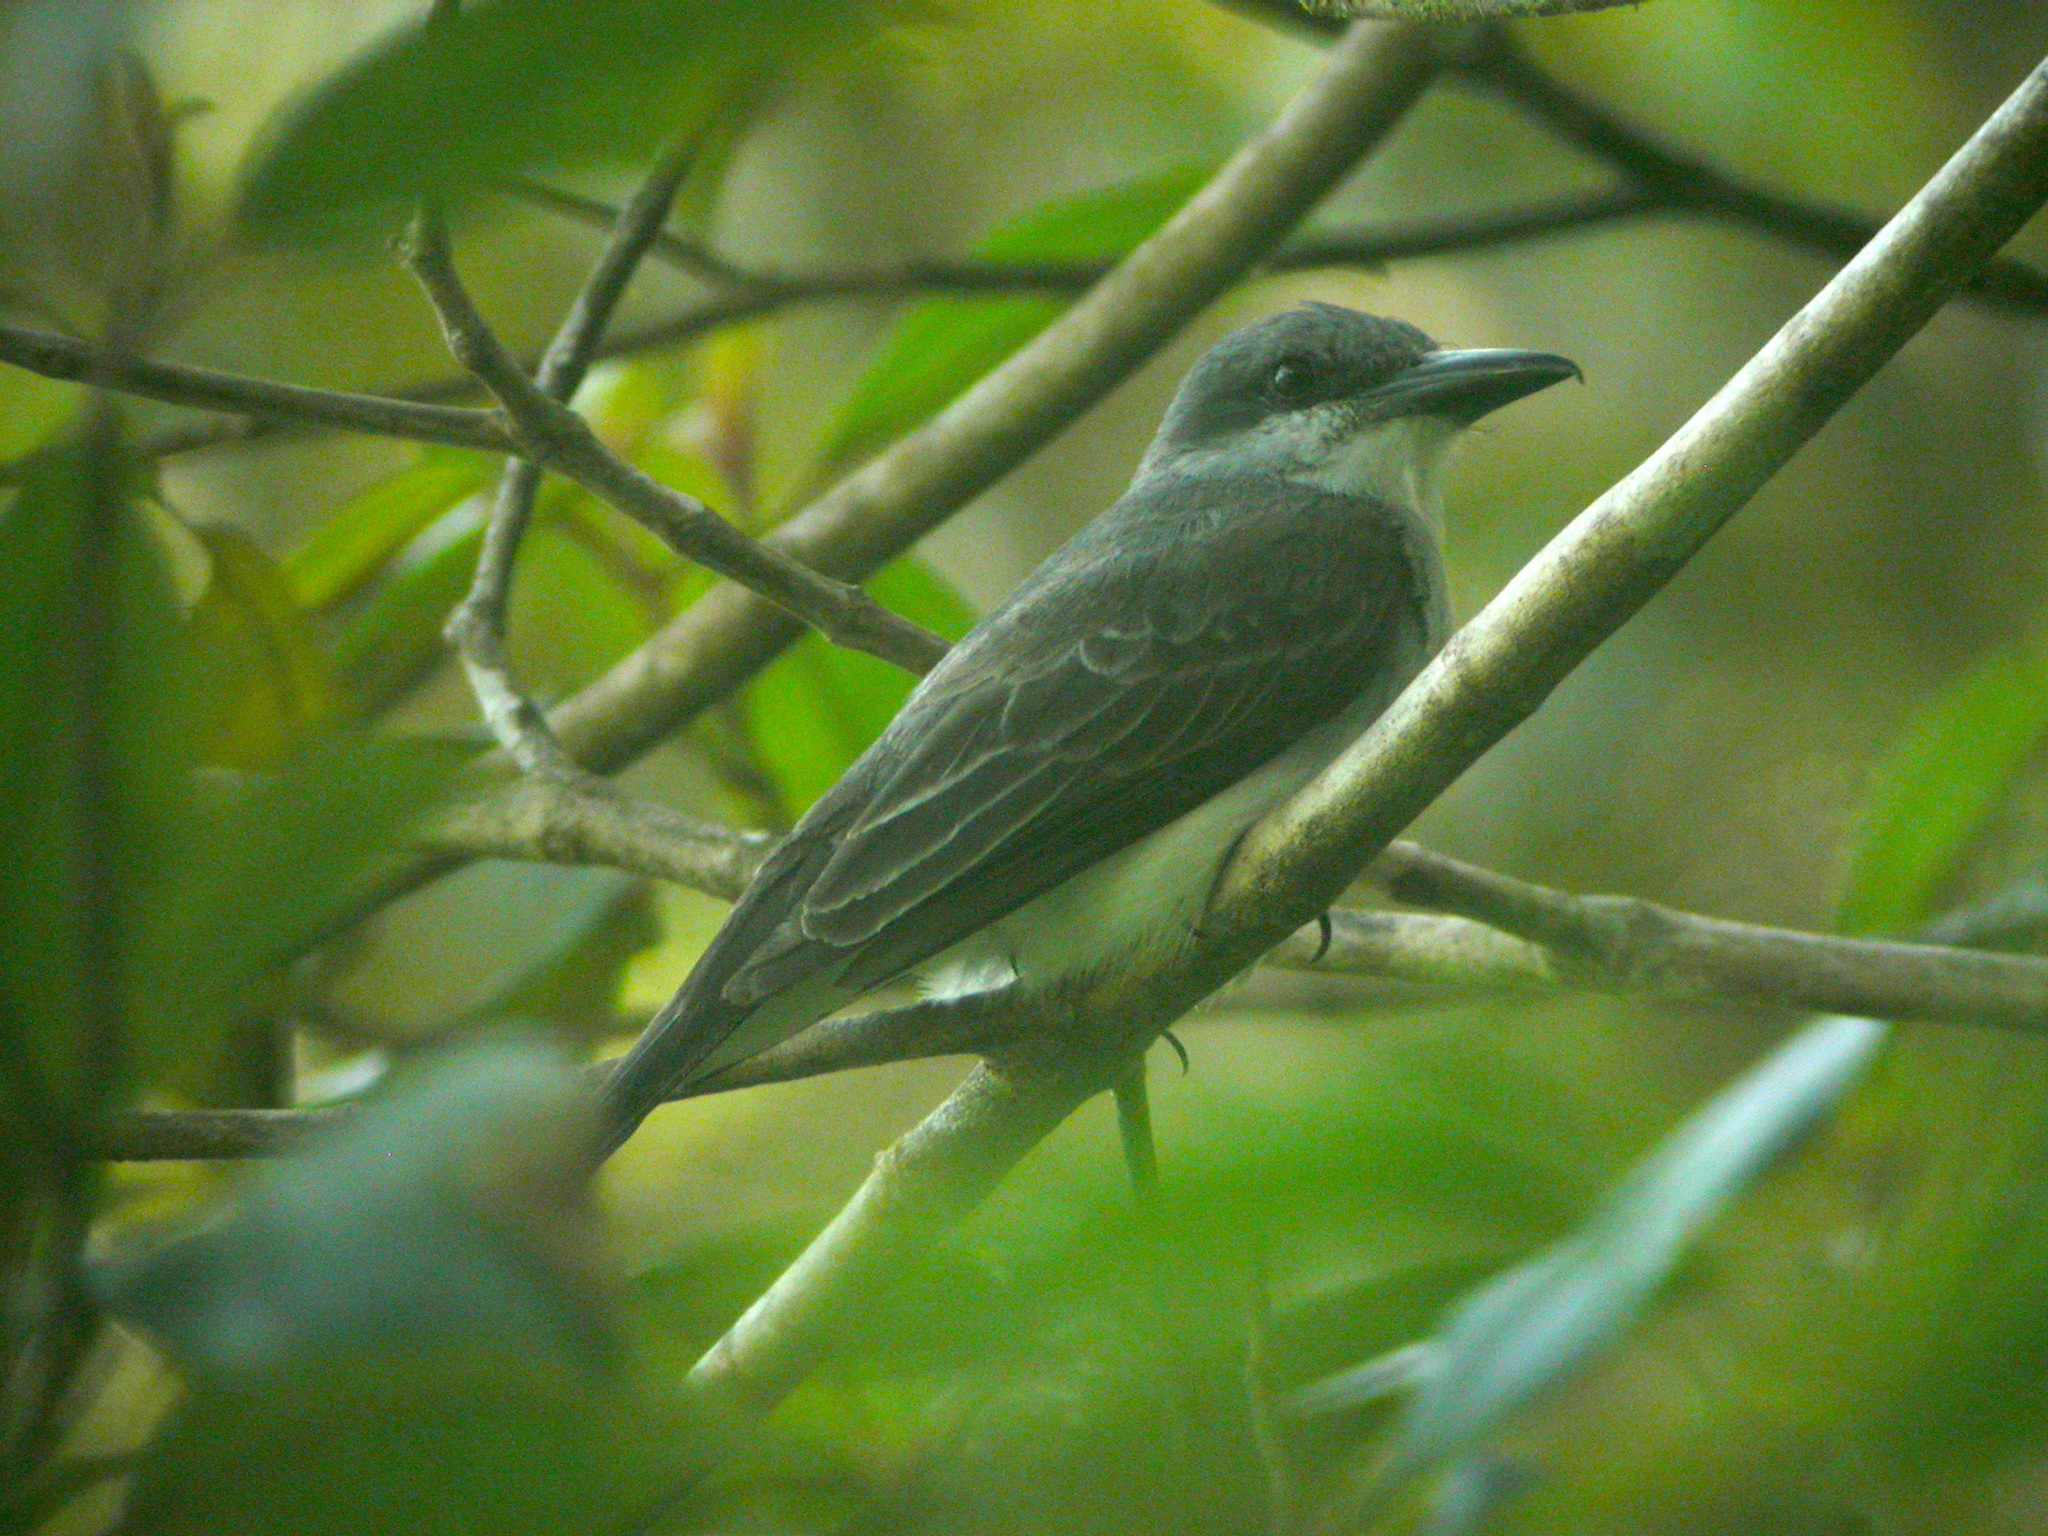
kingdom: Animalia
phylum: Chordata
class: Aves
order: Passeriformes
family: Tyrannidae
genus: Tyrannus
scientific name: Tyrannus dominicensis
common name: Gray kingbird
